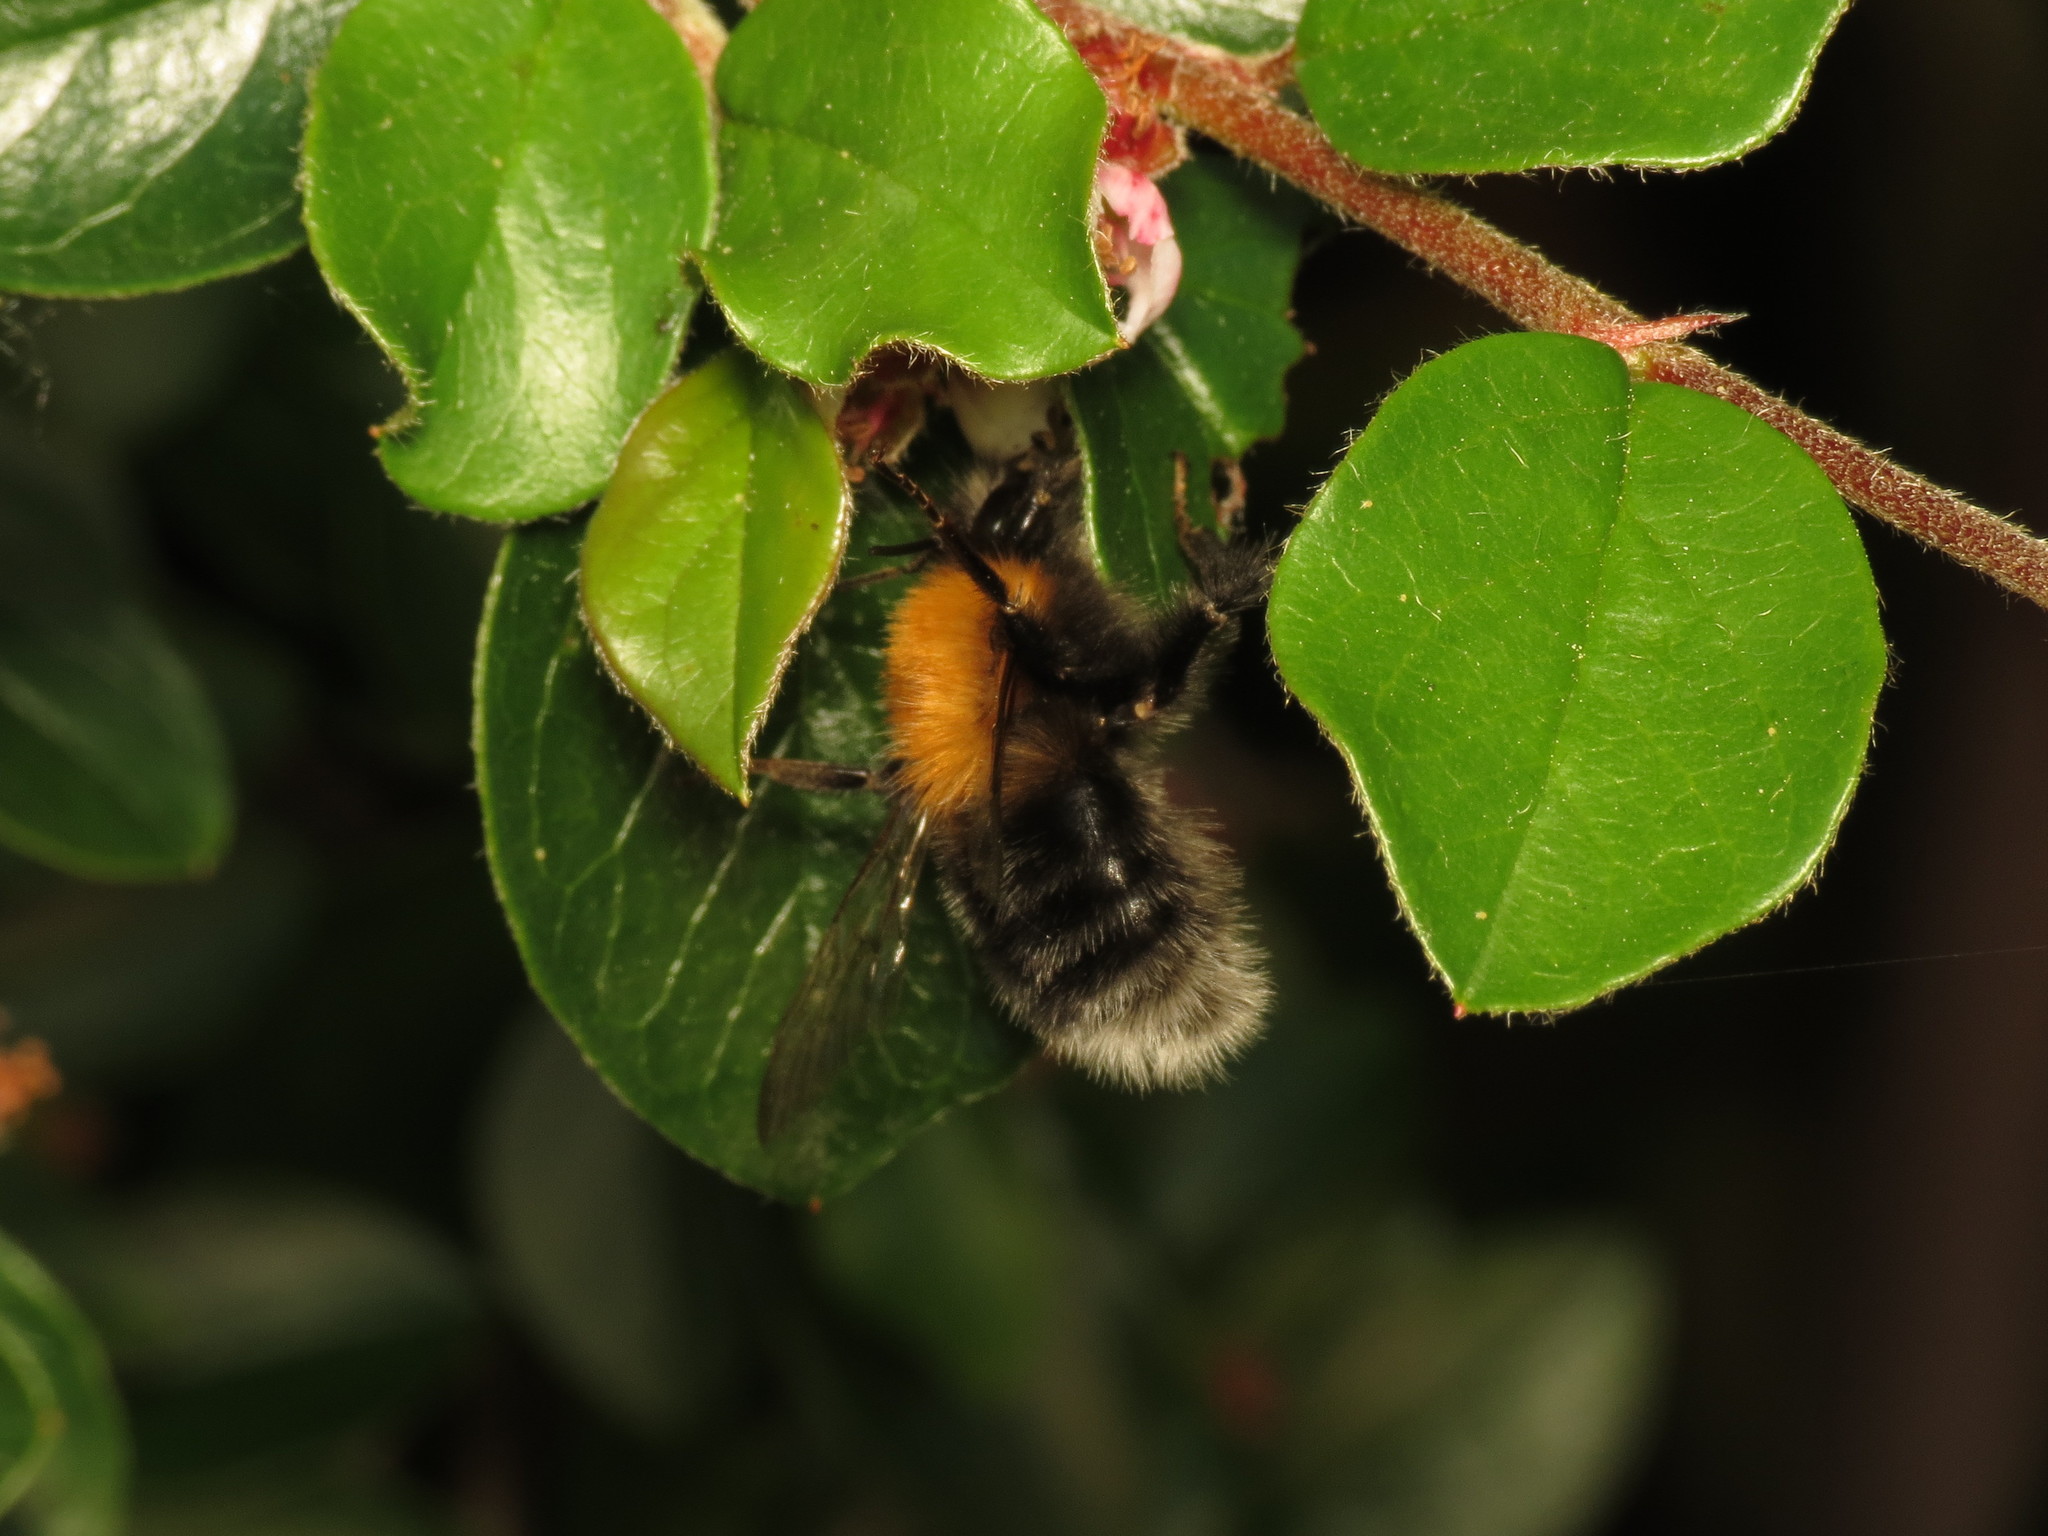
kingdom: Animalia
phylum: Arthropoda
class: Insecta
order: Hymenoptera
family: Apidae
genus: Bombus
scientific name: Bombus hypnorum
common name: New garden bumblebee
